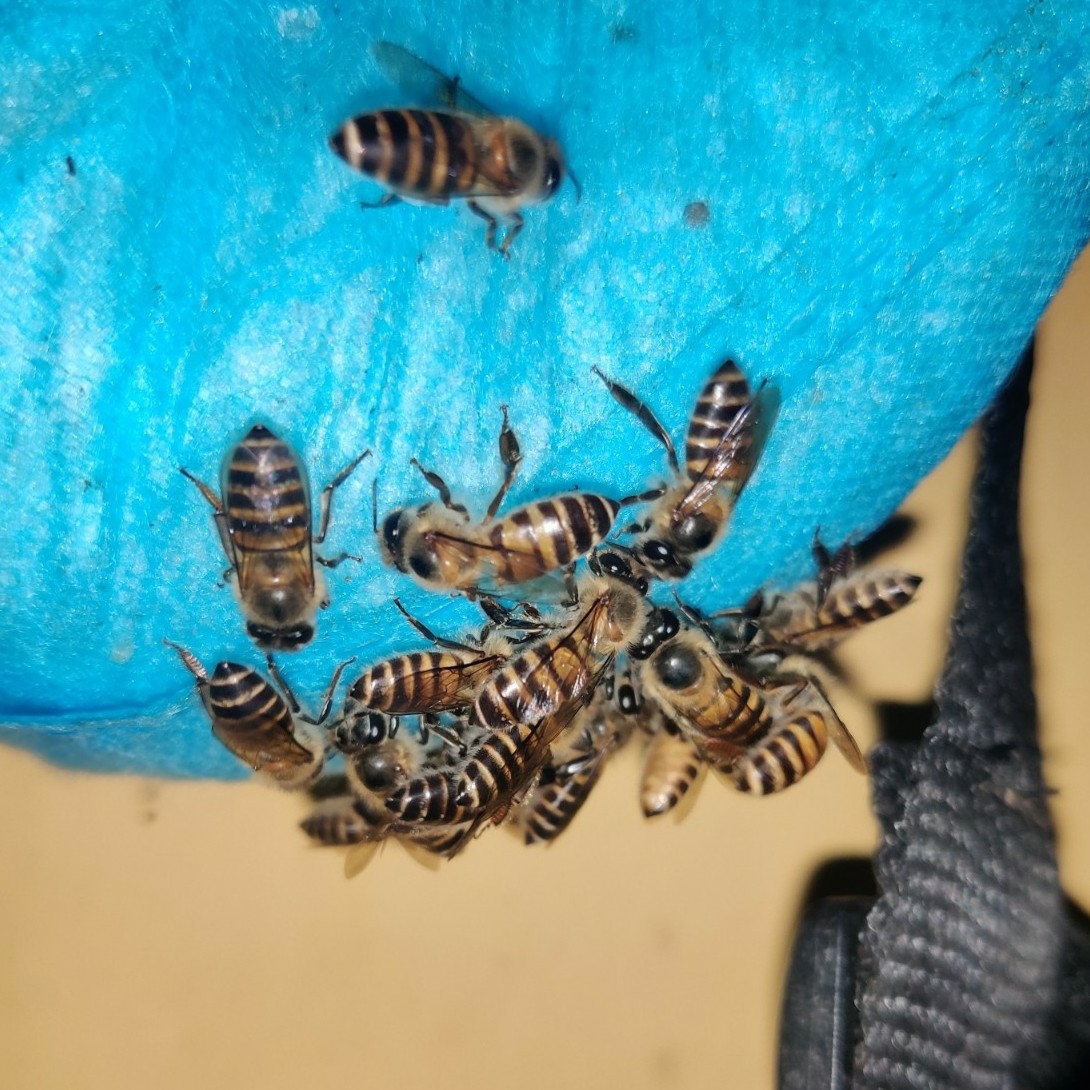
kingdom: Animalia
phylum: Arthropoda
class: Insecta
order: Hymenoptera
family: Apidae
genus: Apis
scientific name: Apis cerana
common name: Honey bee
